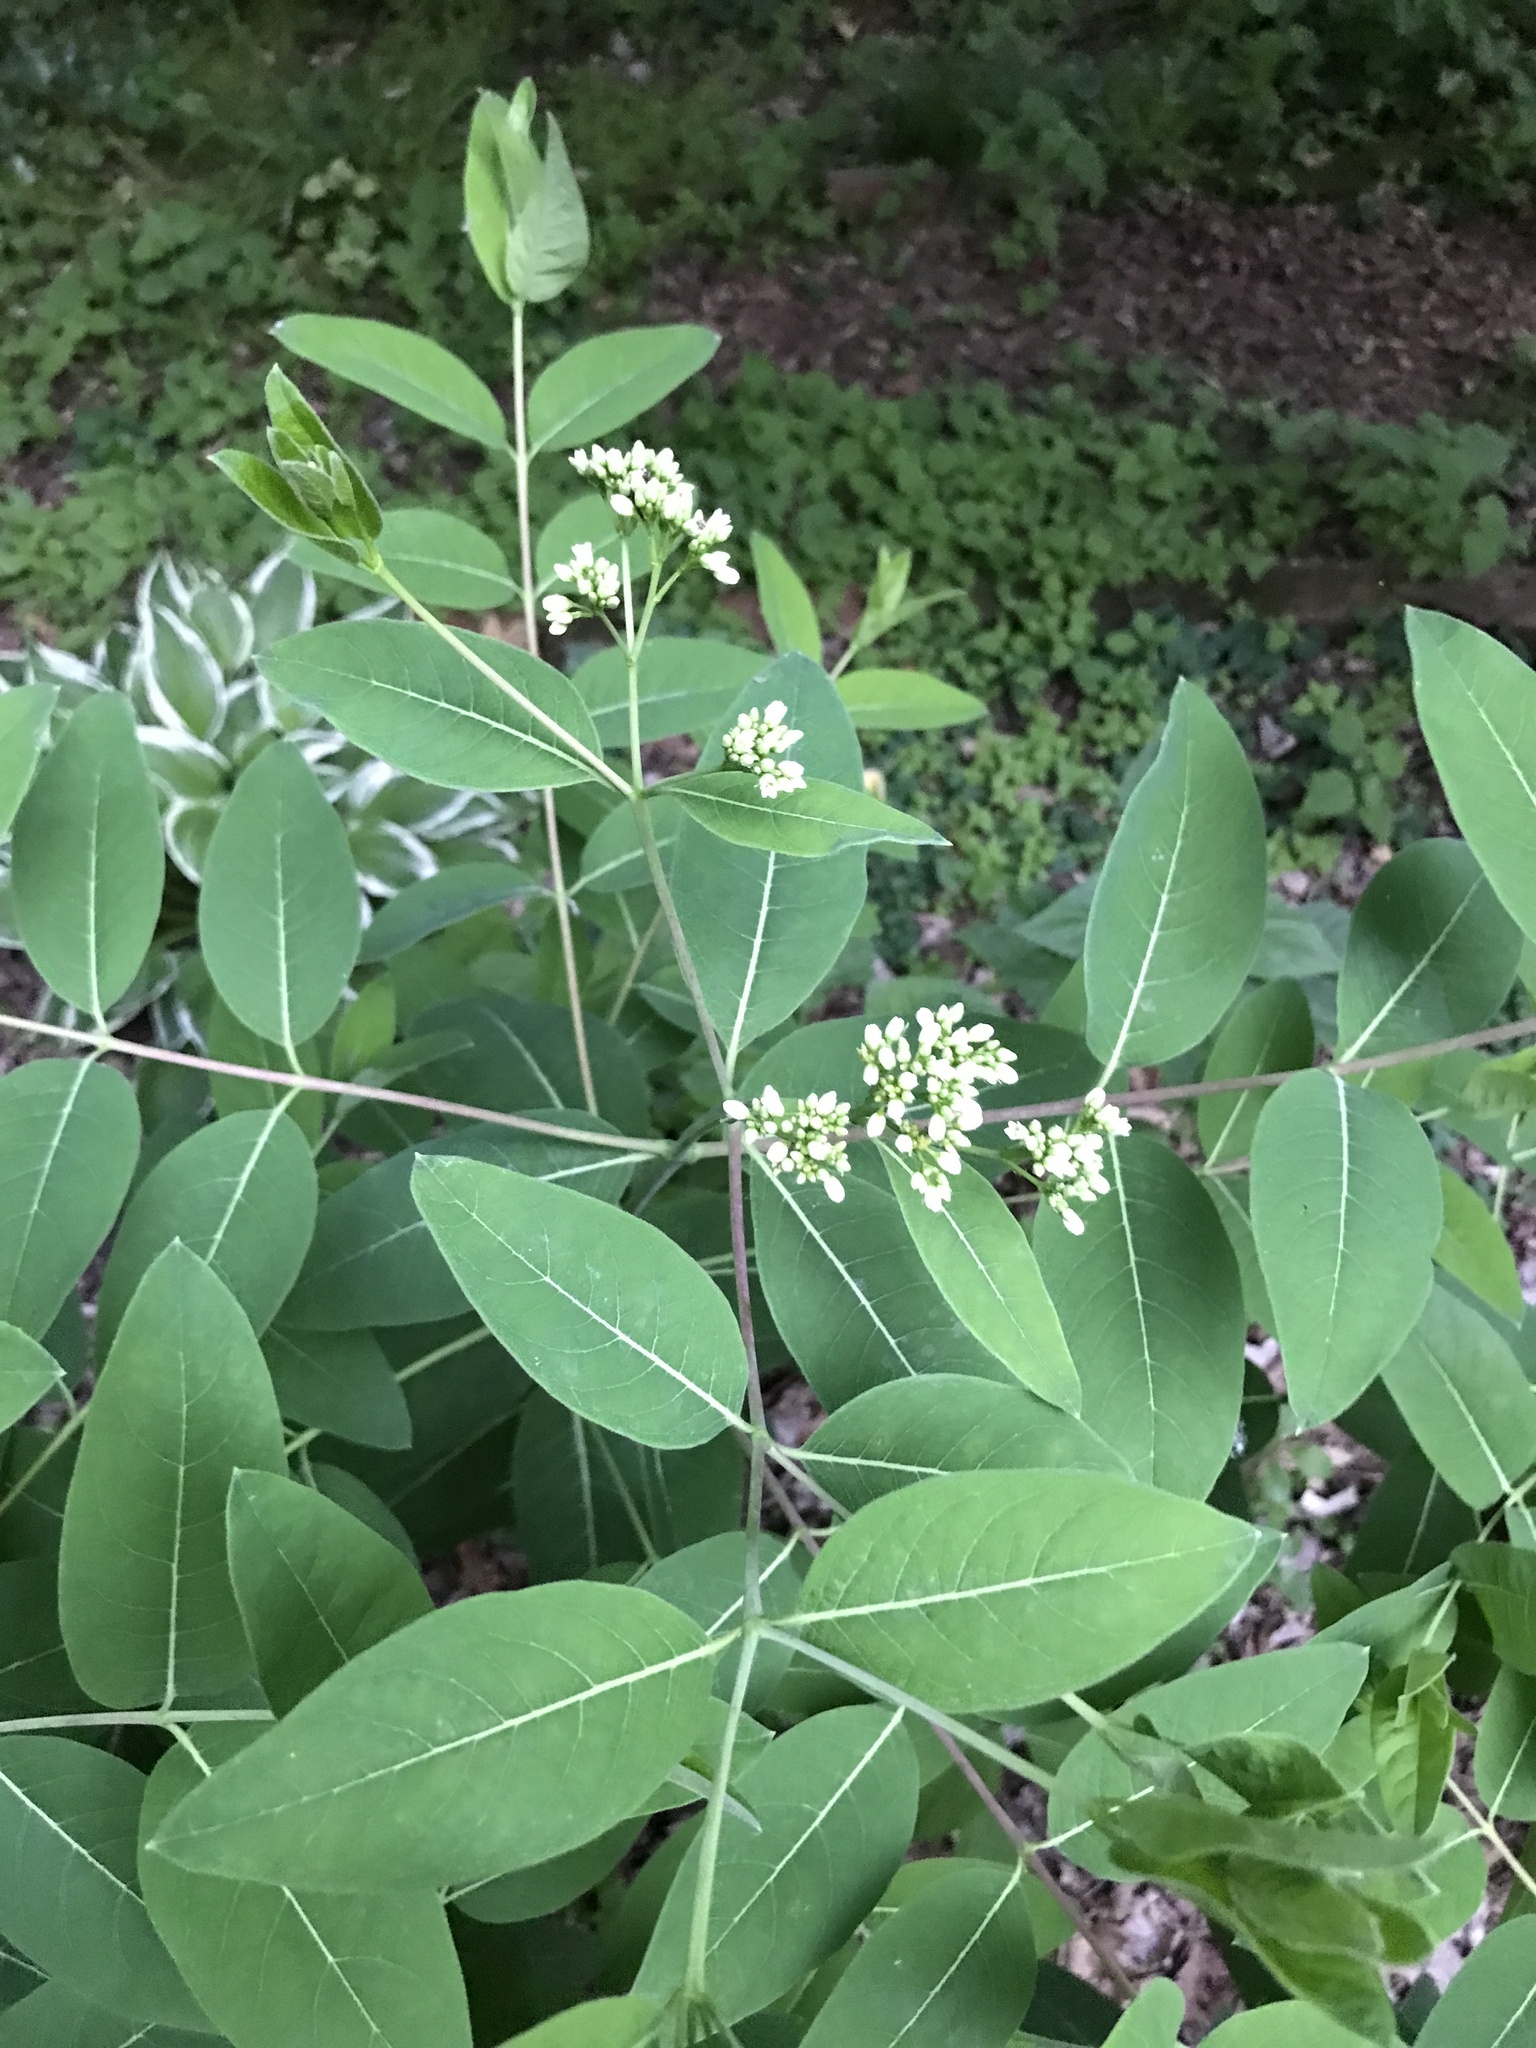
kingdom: Plantae
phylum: Tracheophyta
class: Magnoliopsida
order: Gentianales
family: Apocynaceae
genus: Apocynum
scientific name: Apocynum cannabinum
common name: Hemp dogbane
